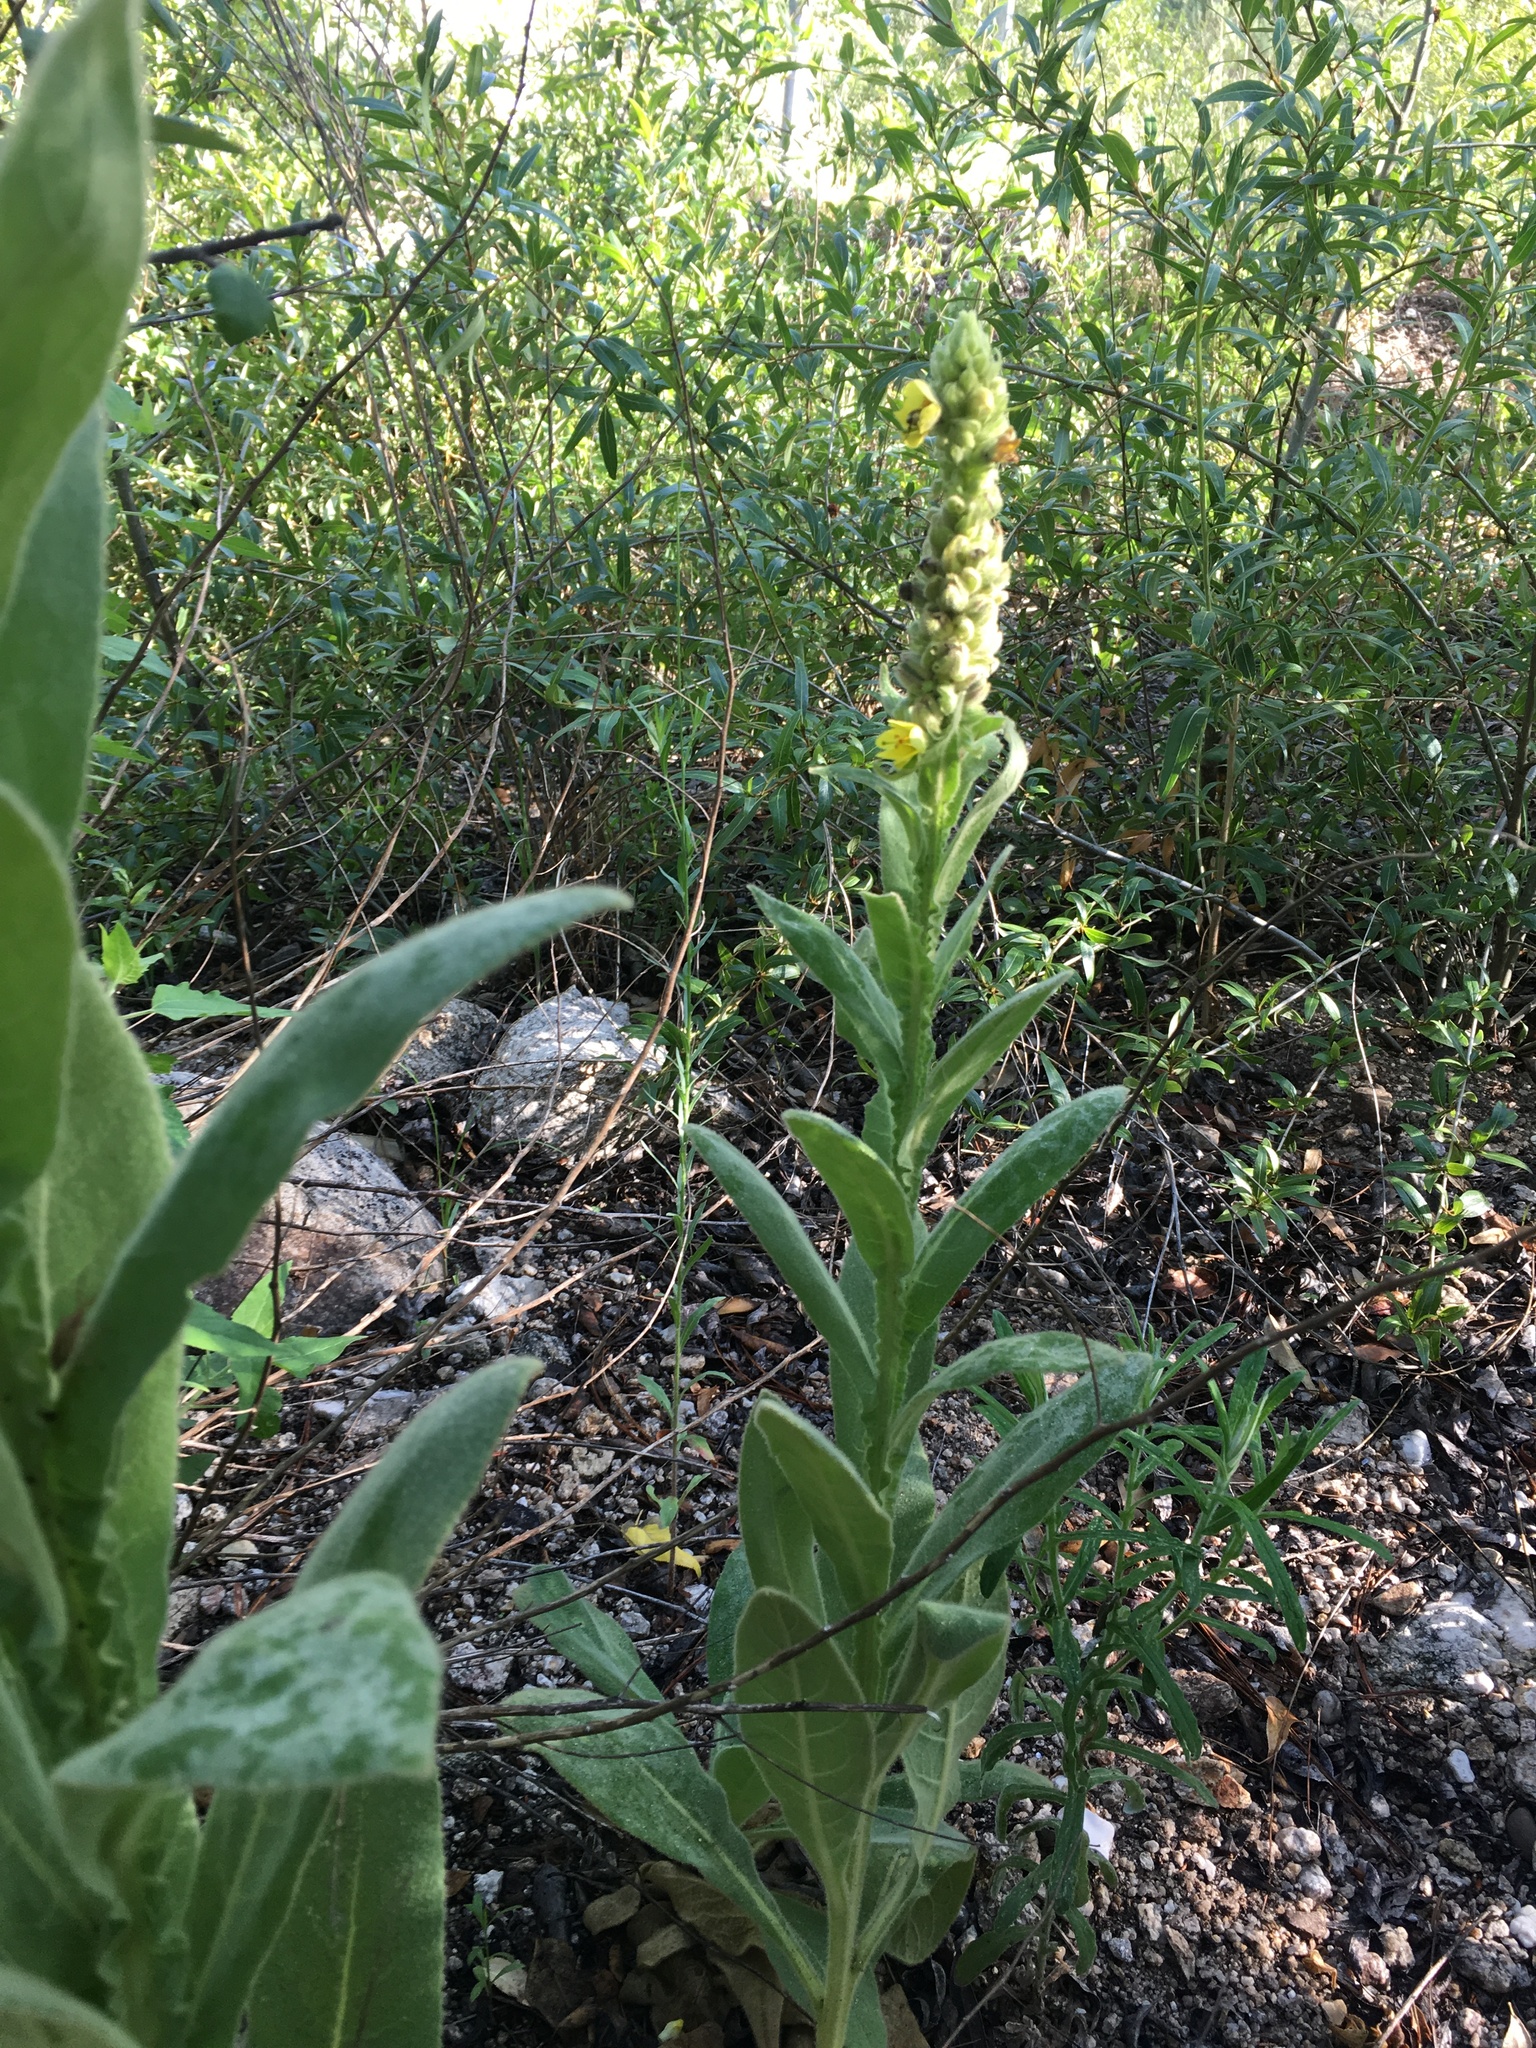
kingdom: Plantae
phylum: Tracheophyta
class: Magnoliopsida
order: Lamiales
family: Scrophulariaceae
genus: Verbascum
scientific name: Verbascum thapsus
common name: Common mullein
